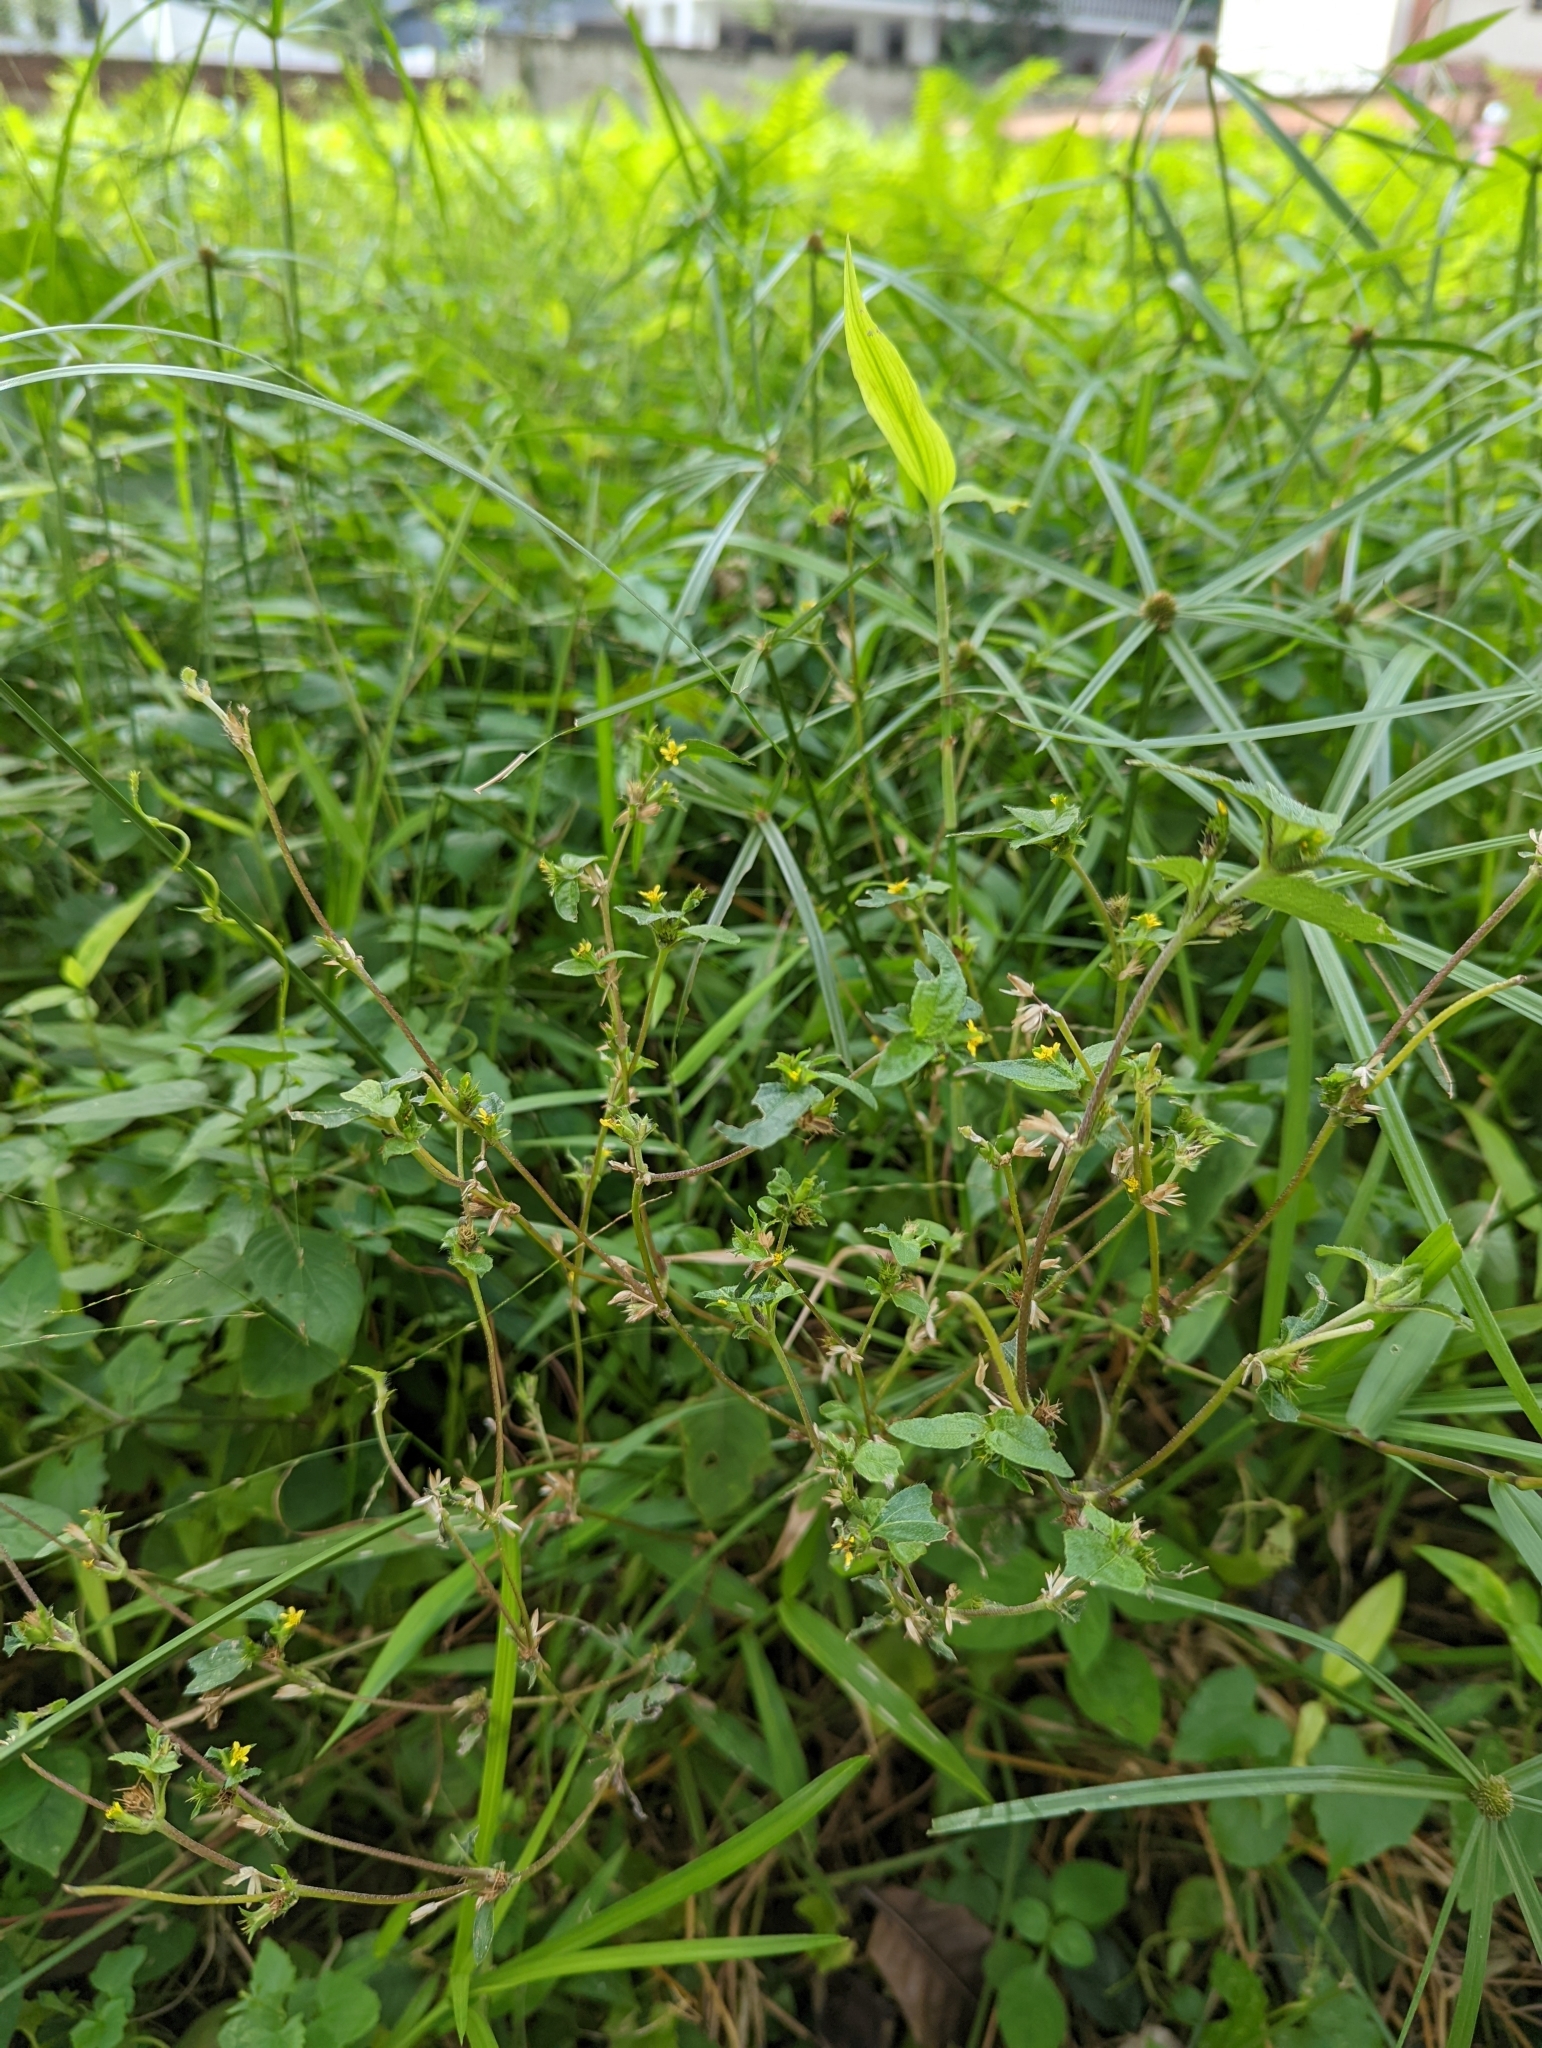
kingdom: Plantae
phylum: Tracheophyta
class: Magnoliopsida
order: Asterales
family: Asteraceae
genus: Synedrella
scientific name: Synedrella nodiflora
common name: Nodeweed
